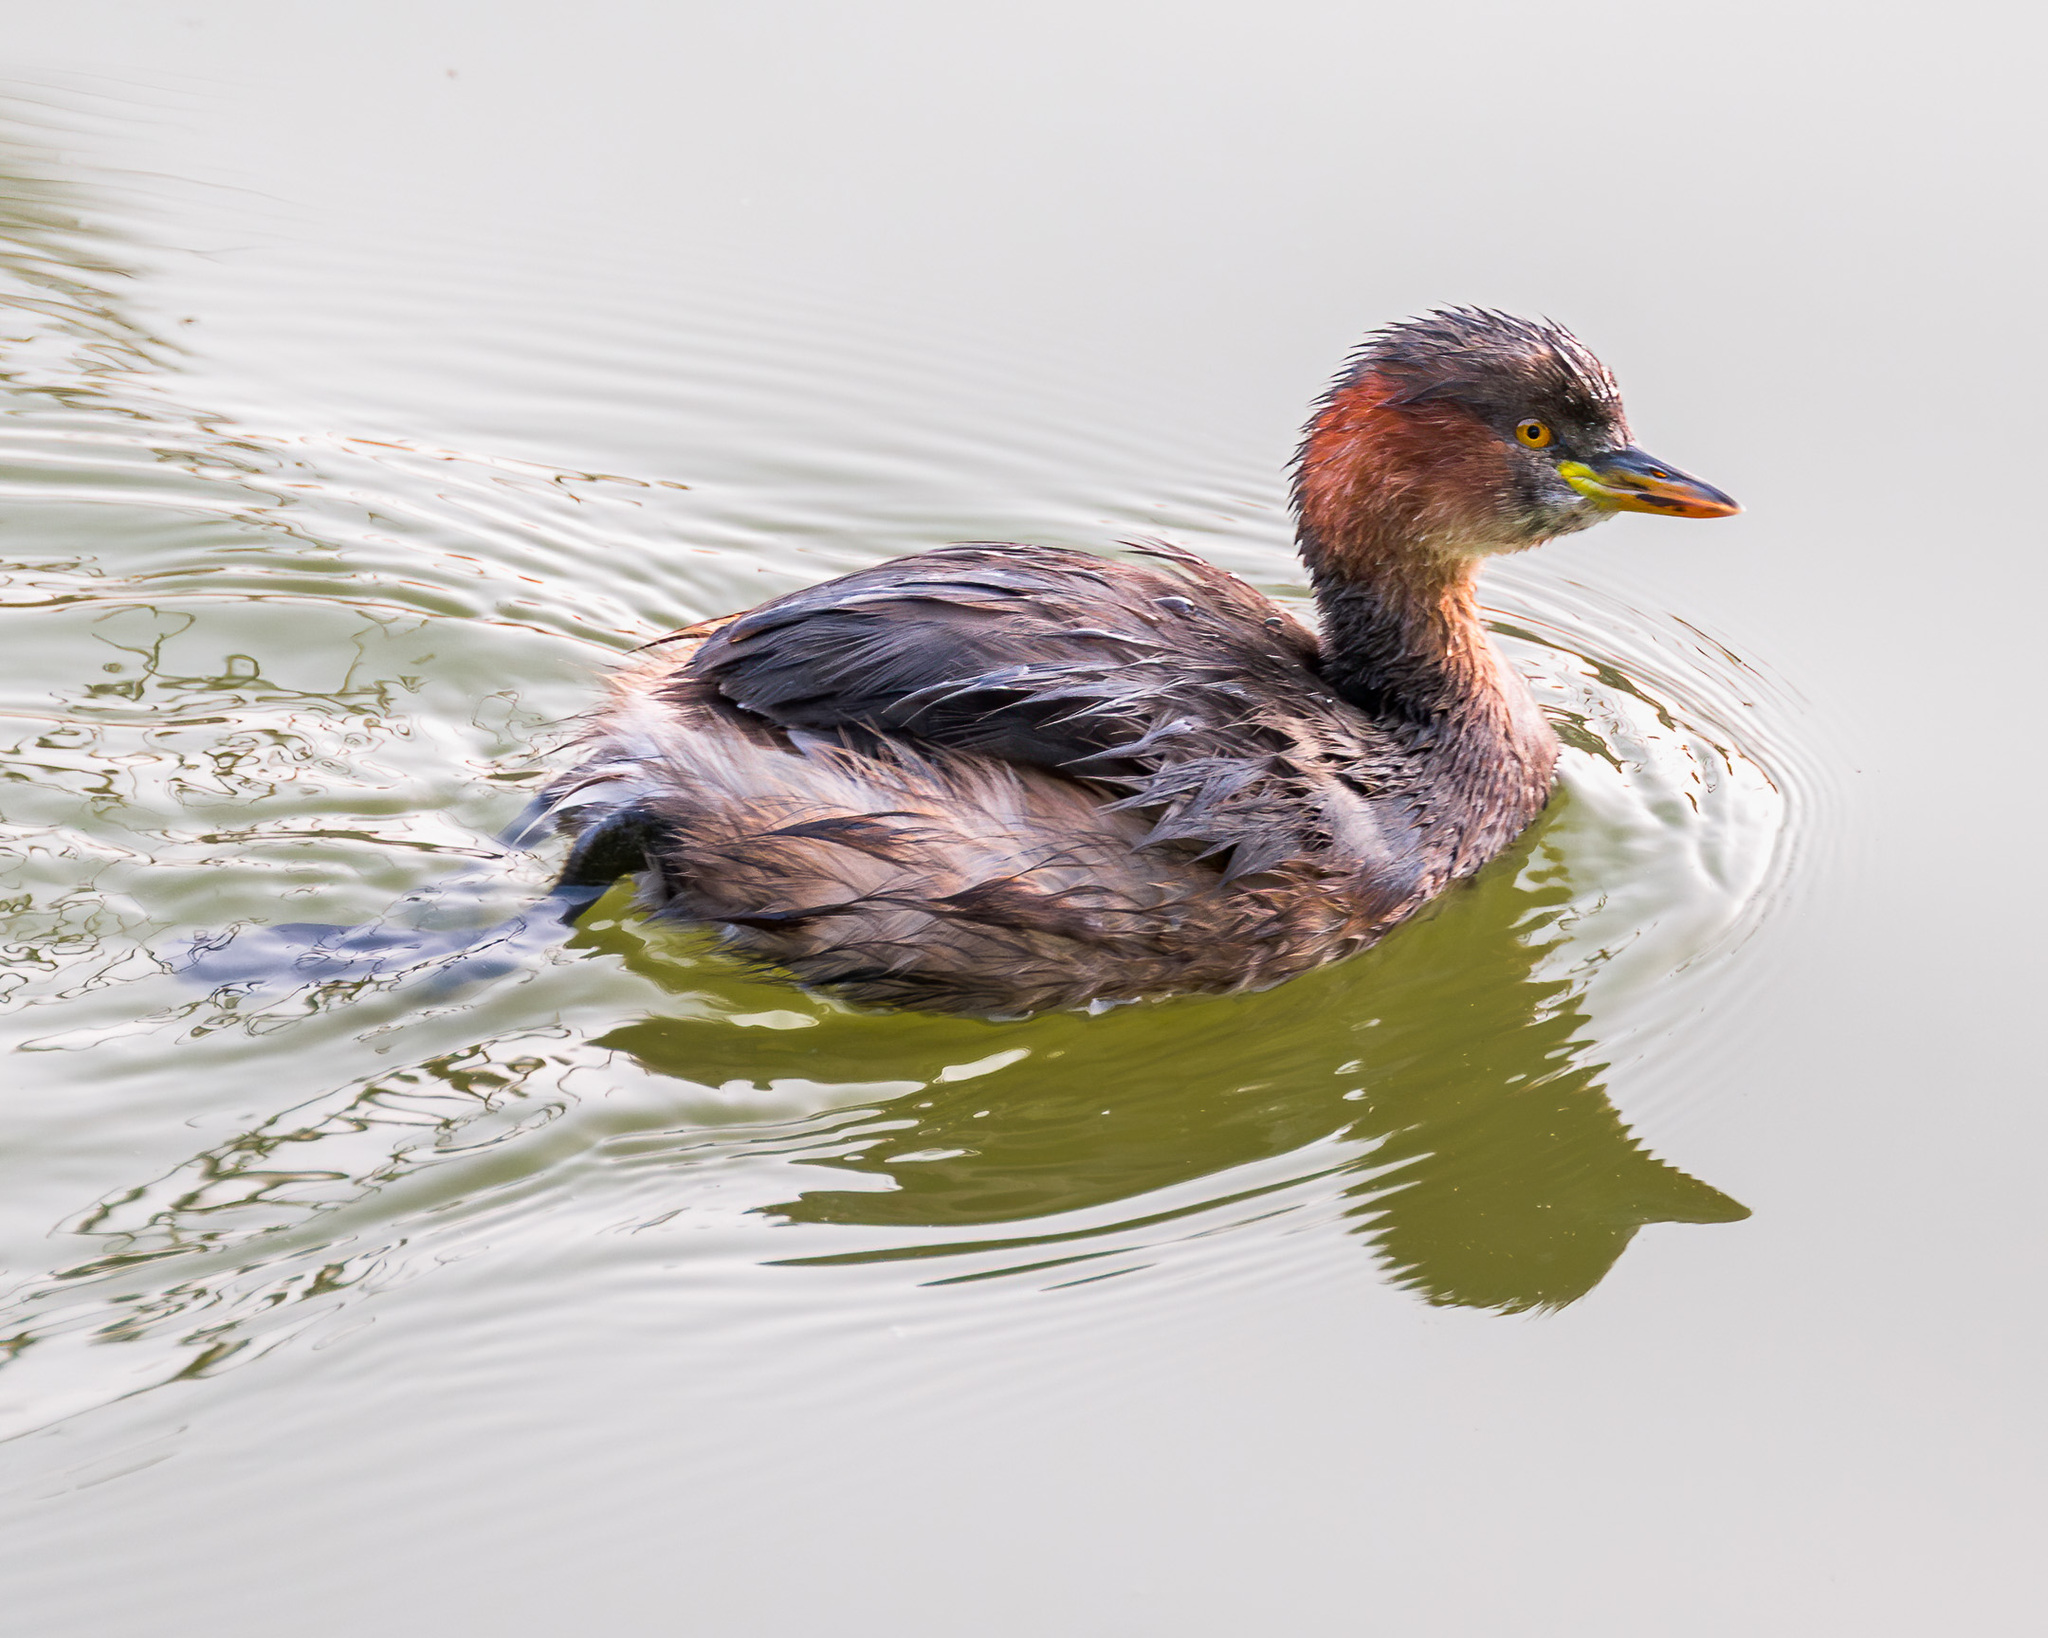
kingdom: Animalia
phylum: Chordata
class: Aves
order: Podicipediformes
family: Podicipedidae
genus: Tachybaptus
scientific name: Tachybaptus ruficollis
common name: Little grebe
